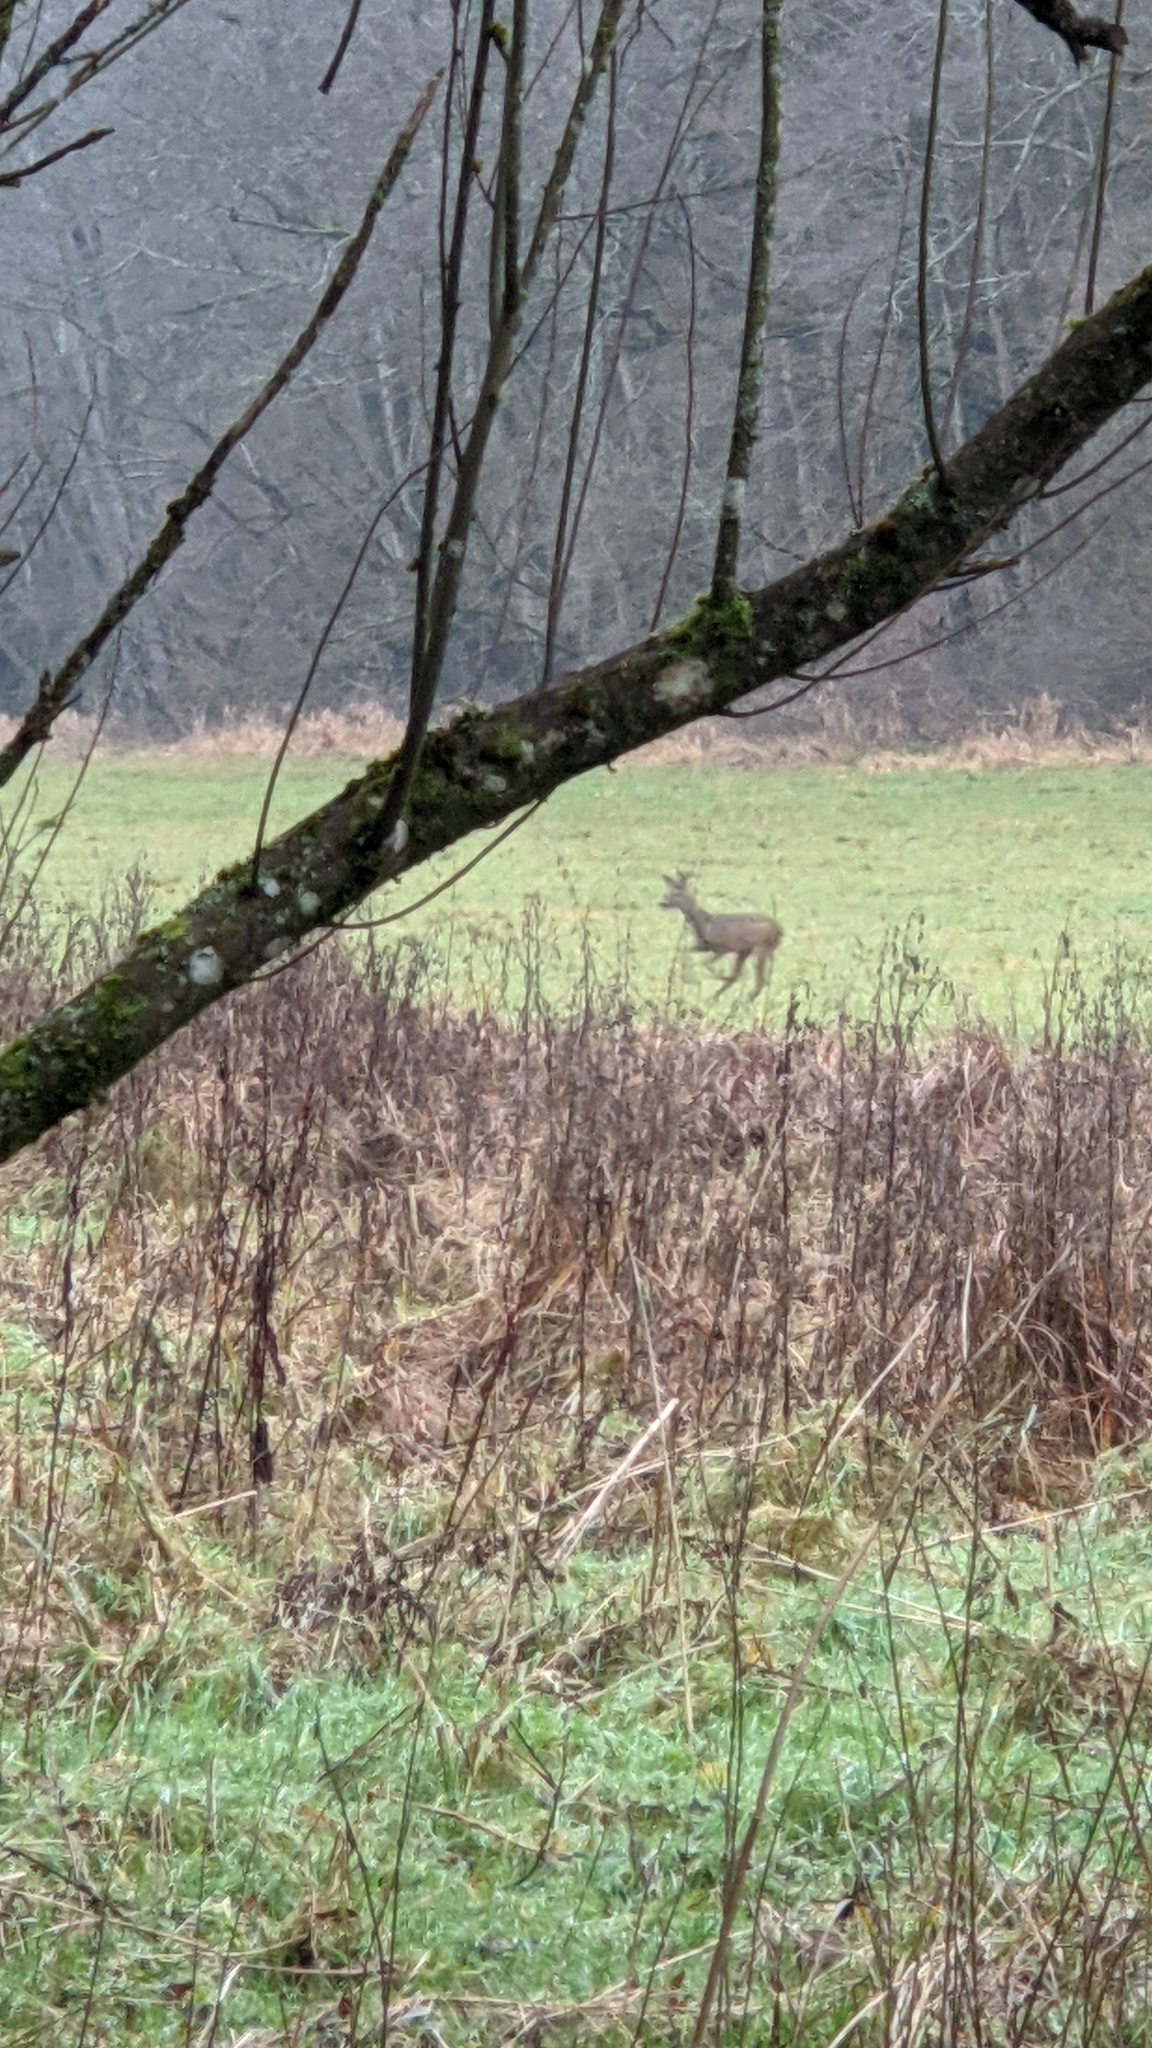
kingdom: Animalia
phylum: Chordata
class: Mammalia
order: Artiodactyla
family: Cervidae
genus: Capreolus
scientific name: Capreolus capreolus
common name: Western roe deer
